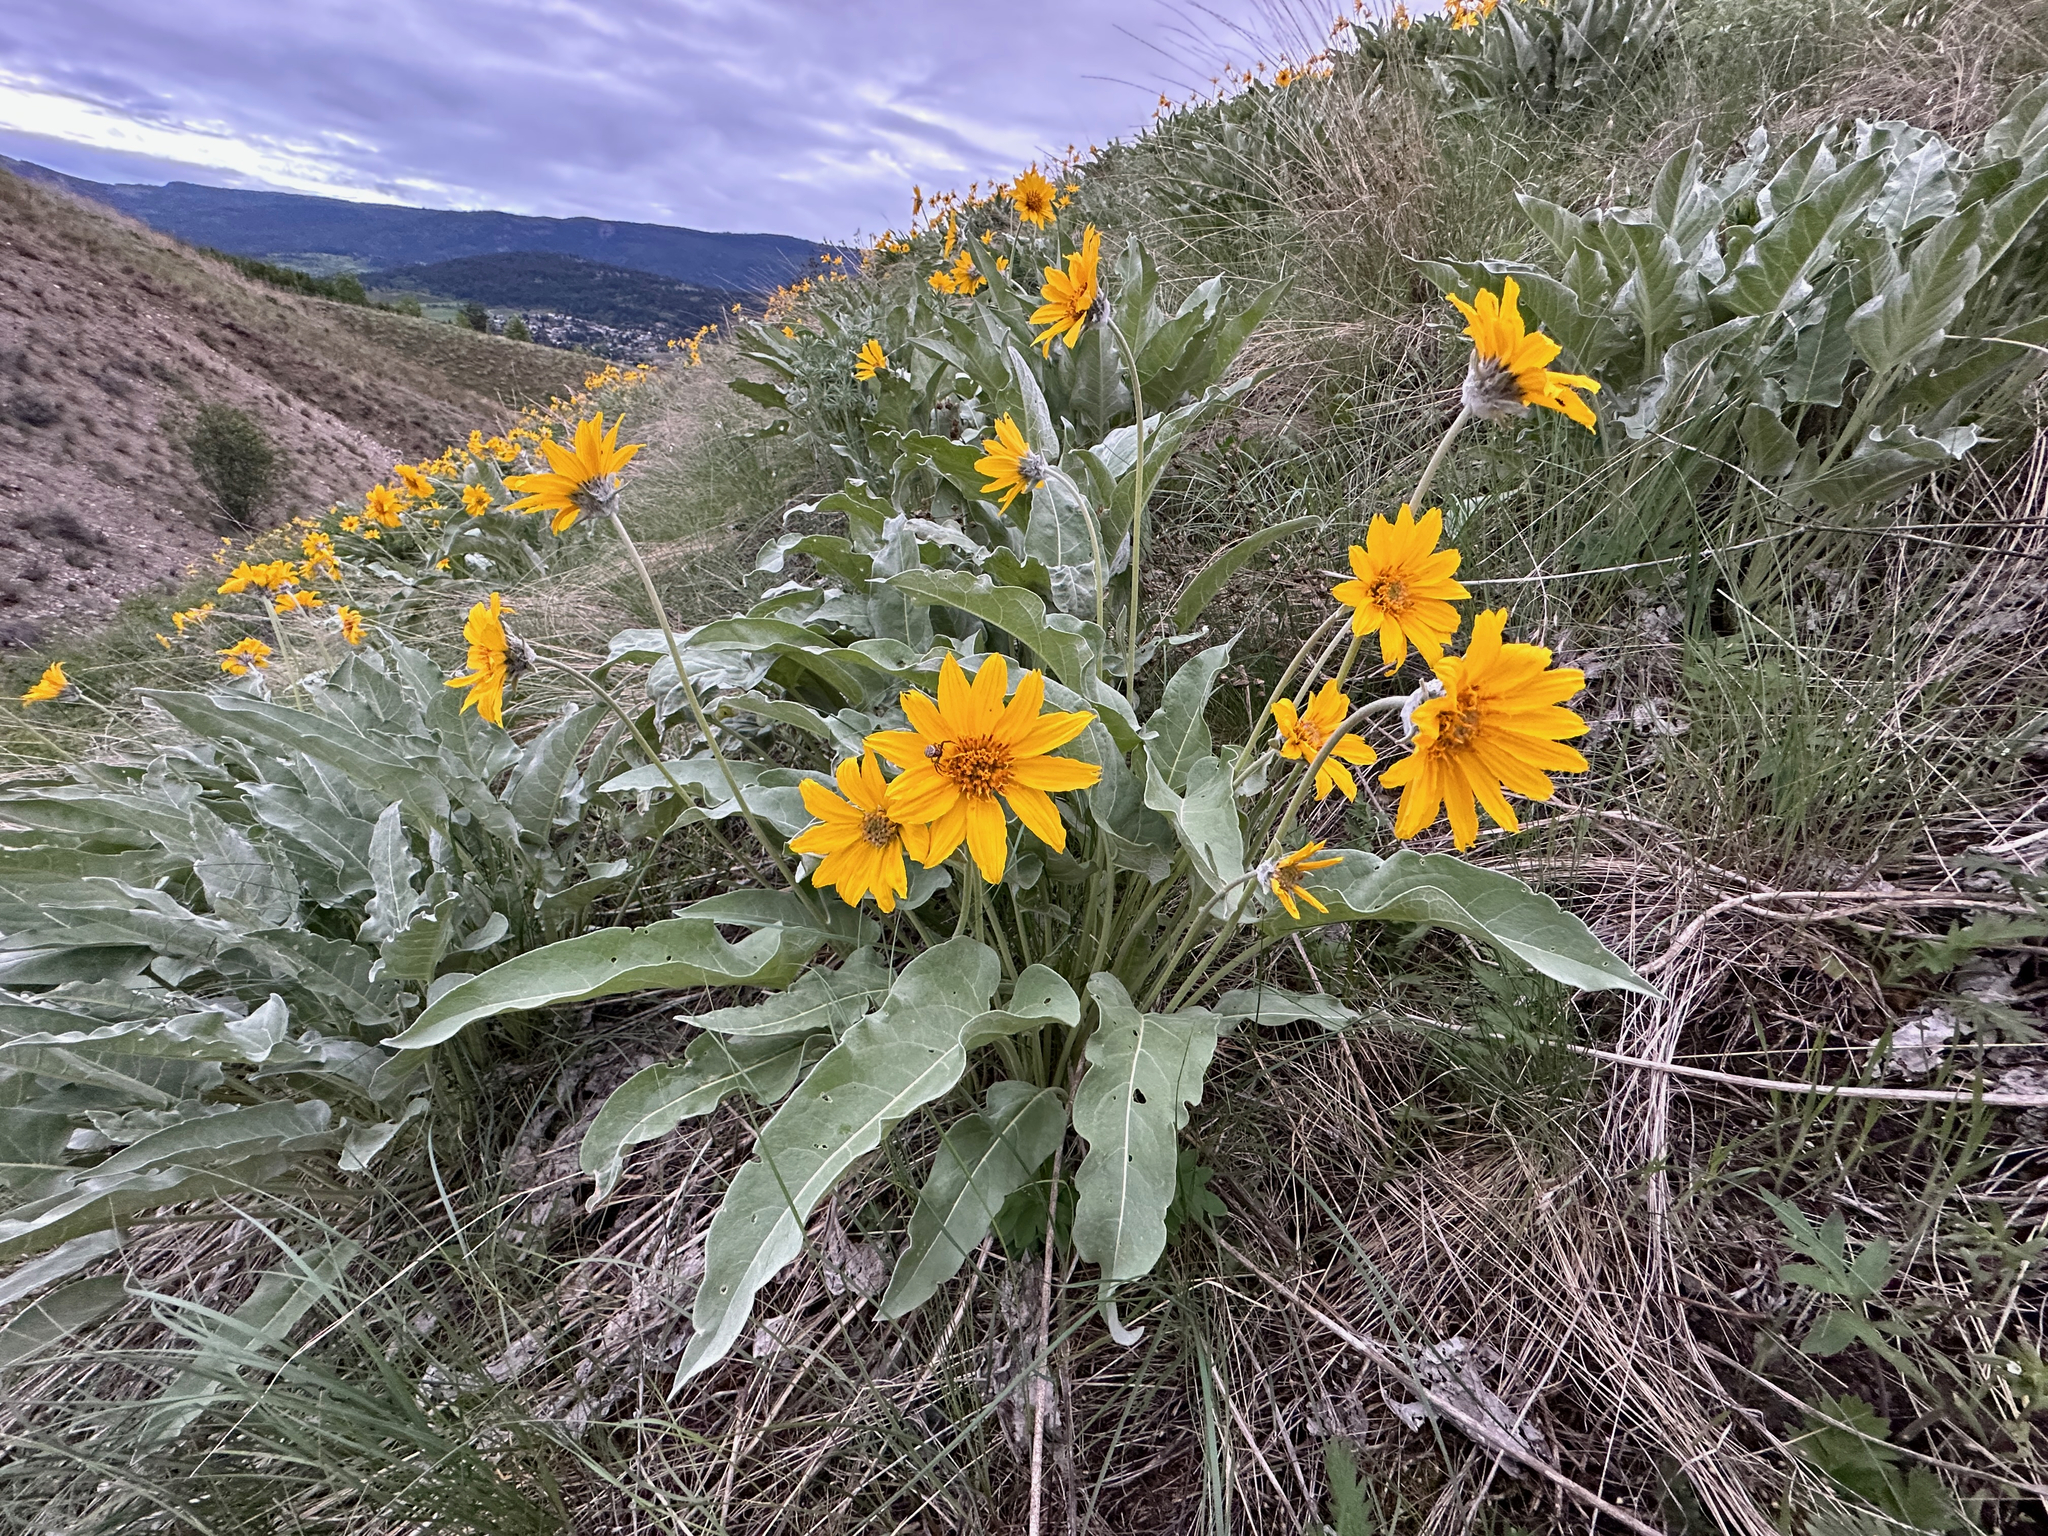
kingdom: Plantae
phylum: Tracheophyta
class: Magnoliopsida
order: Asterales
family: Asteraceae
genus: Wyethia
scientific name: Wyethia sagittata
